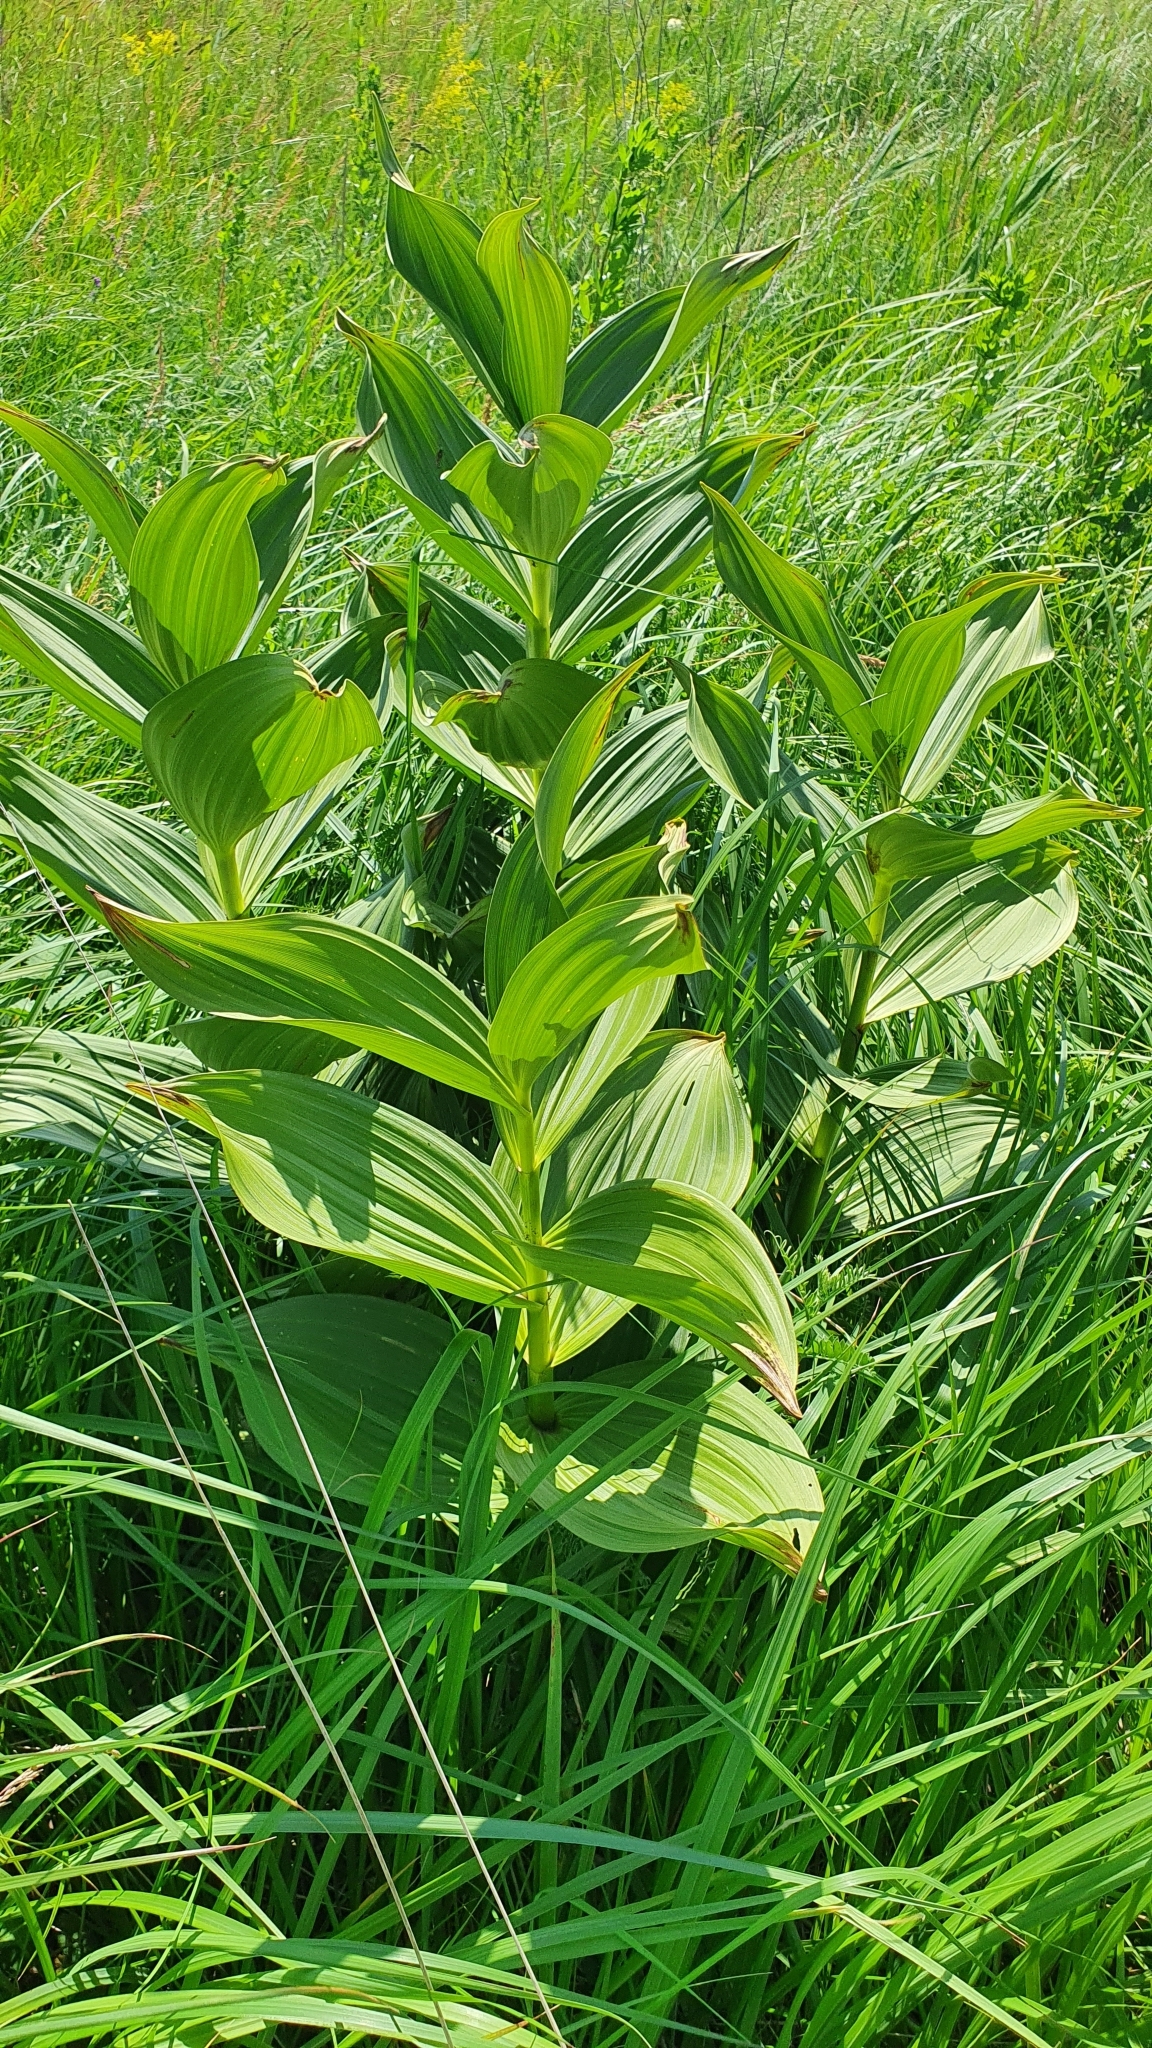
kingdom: Plantae
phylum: Tracheophyta
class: Liliopsida
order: Liliales
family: Melanthiaceae
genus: Veratrum
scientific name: Veratrum lobelianum
